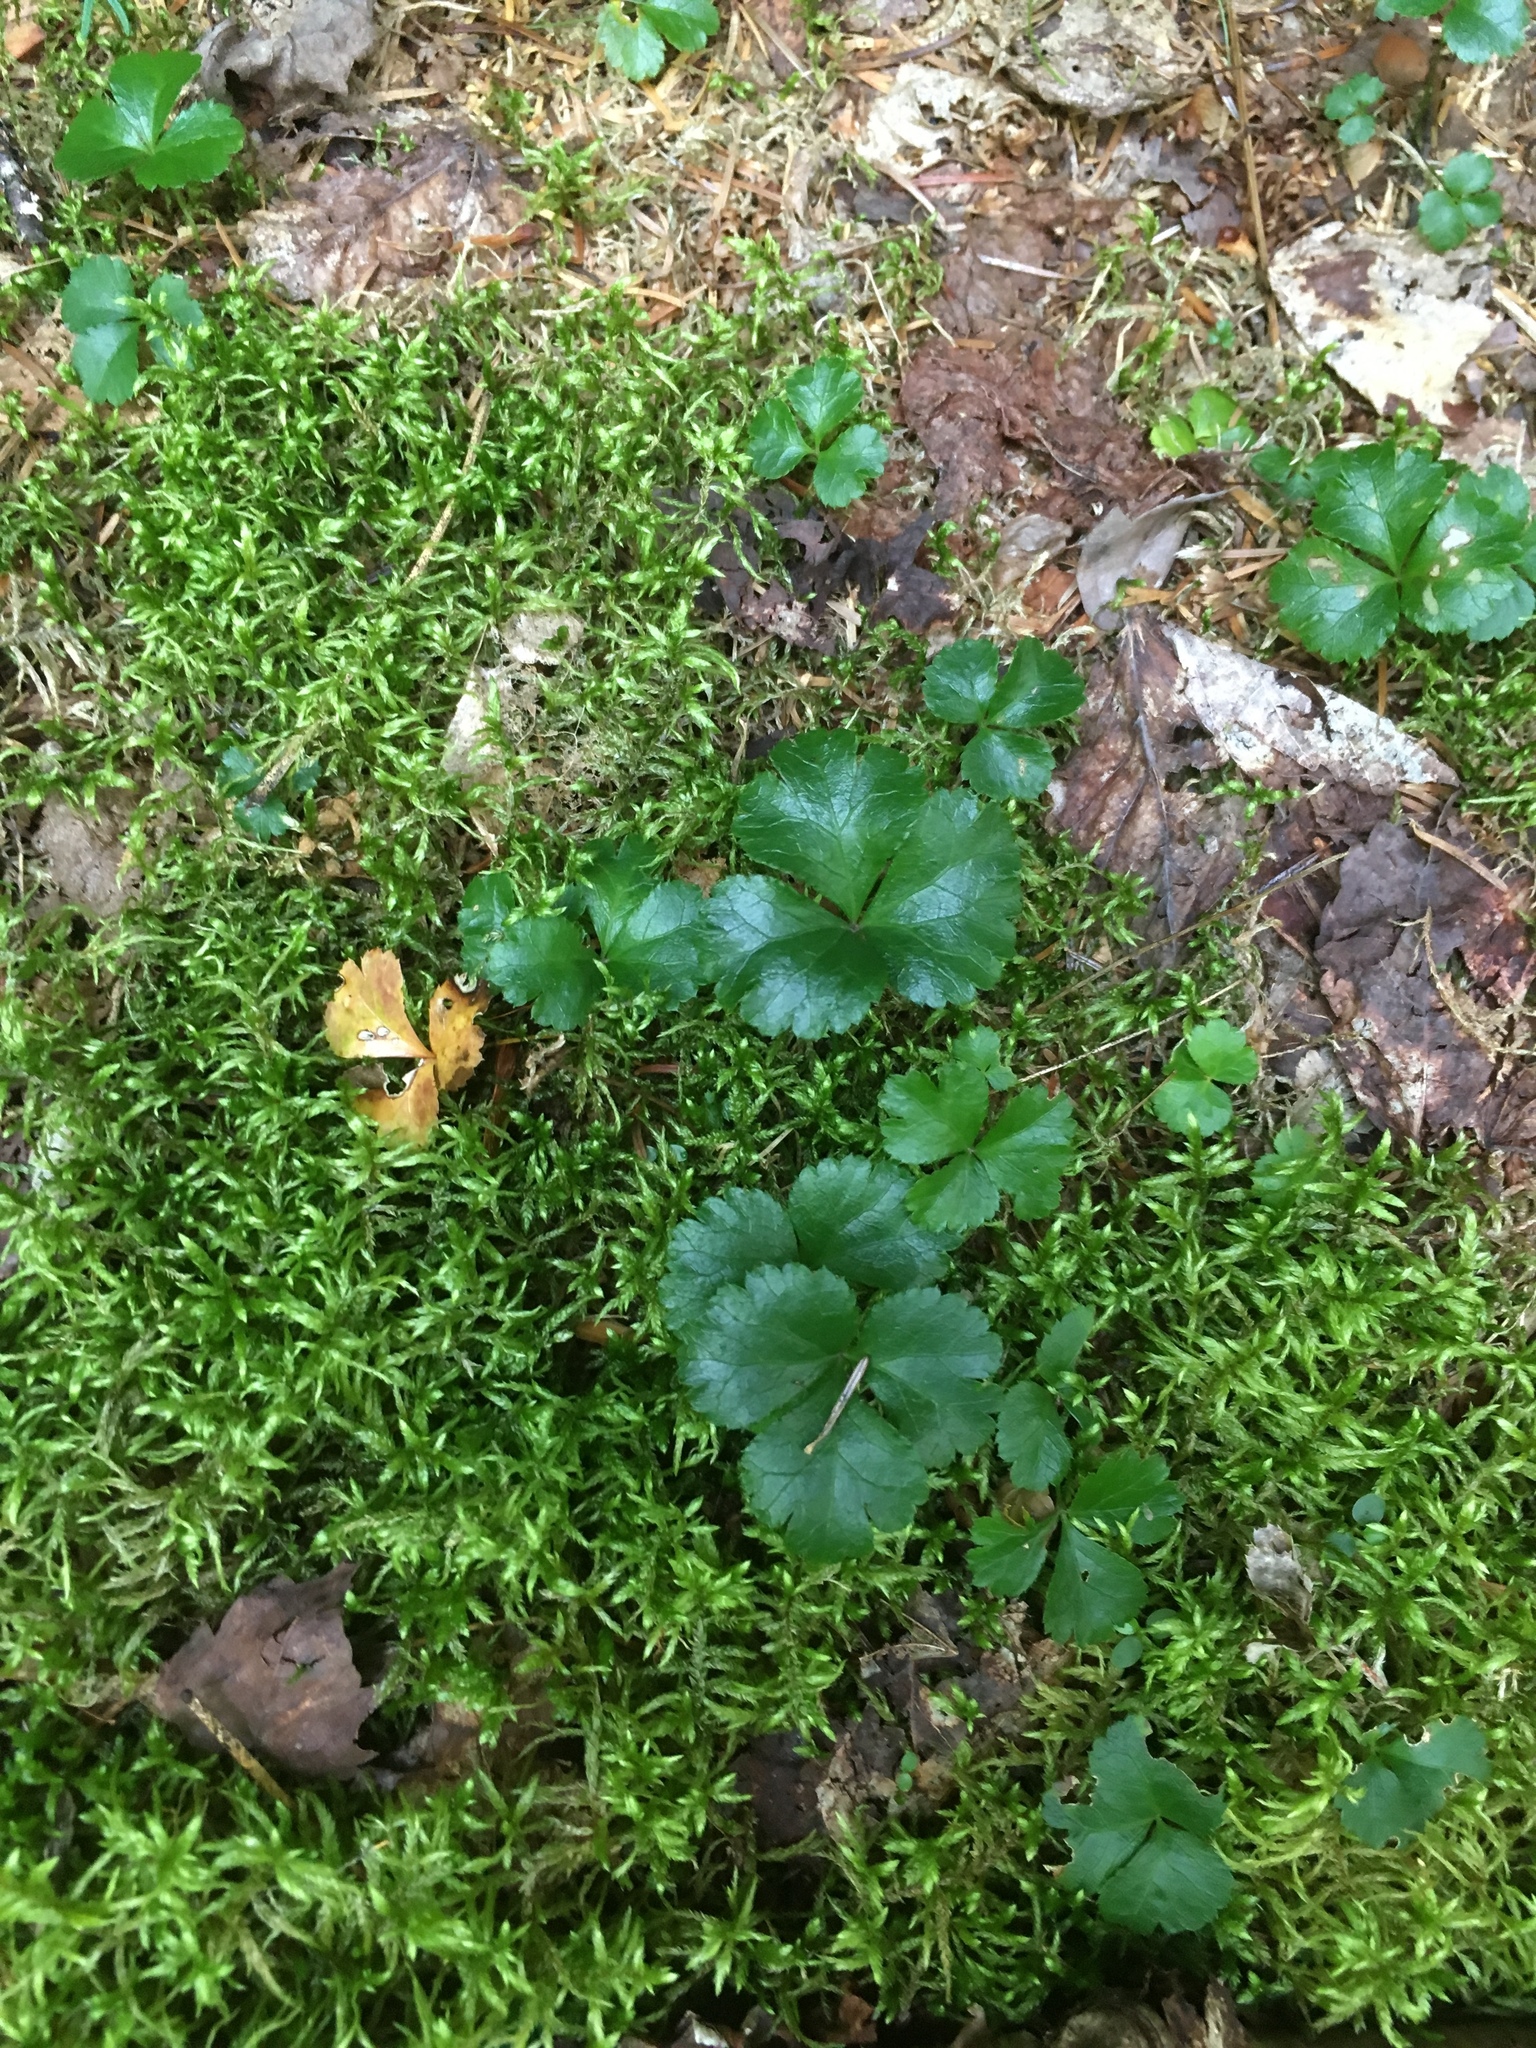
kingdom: Plantae
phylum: Tracheophyta
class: Magnoliopsida
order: Ranunculales
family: Ranunculaceae
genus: Coptis
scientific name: Coptis trifolia
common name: Canker-root
